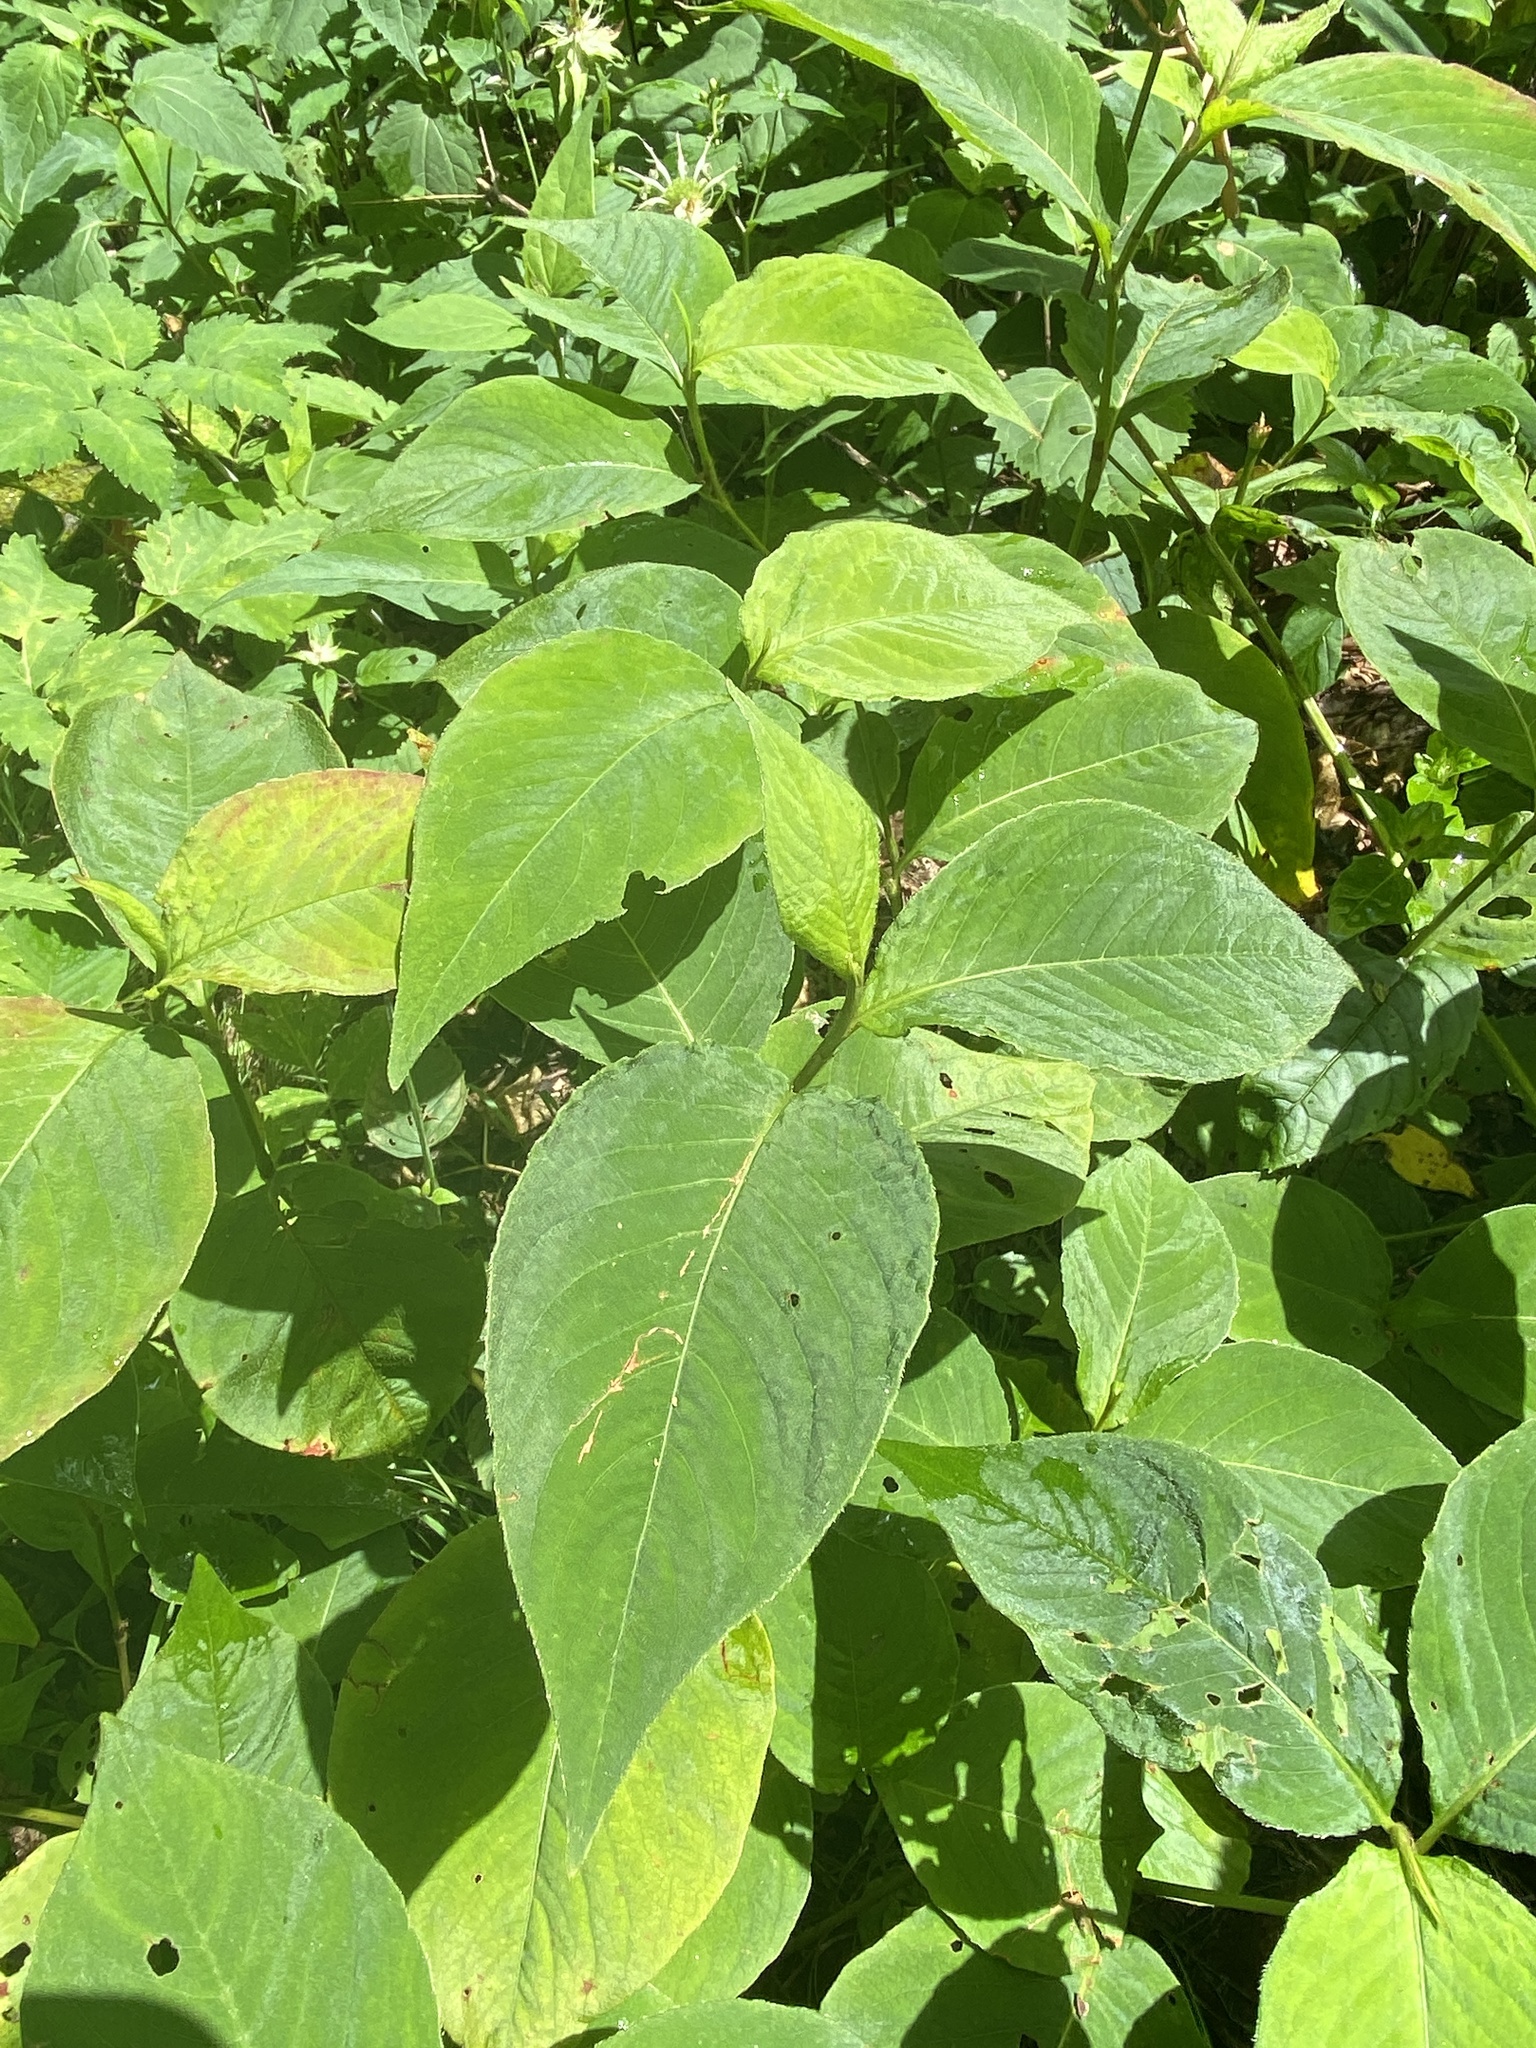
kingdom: Plantae
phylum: Tracheophyta
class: Magnoliopsida
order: Caryophyllales
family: Polygonaceae
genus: Persicaria
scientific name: Persicaria virginiana
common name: Jumpseed
